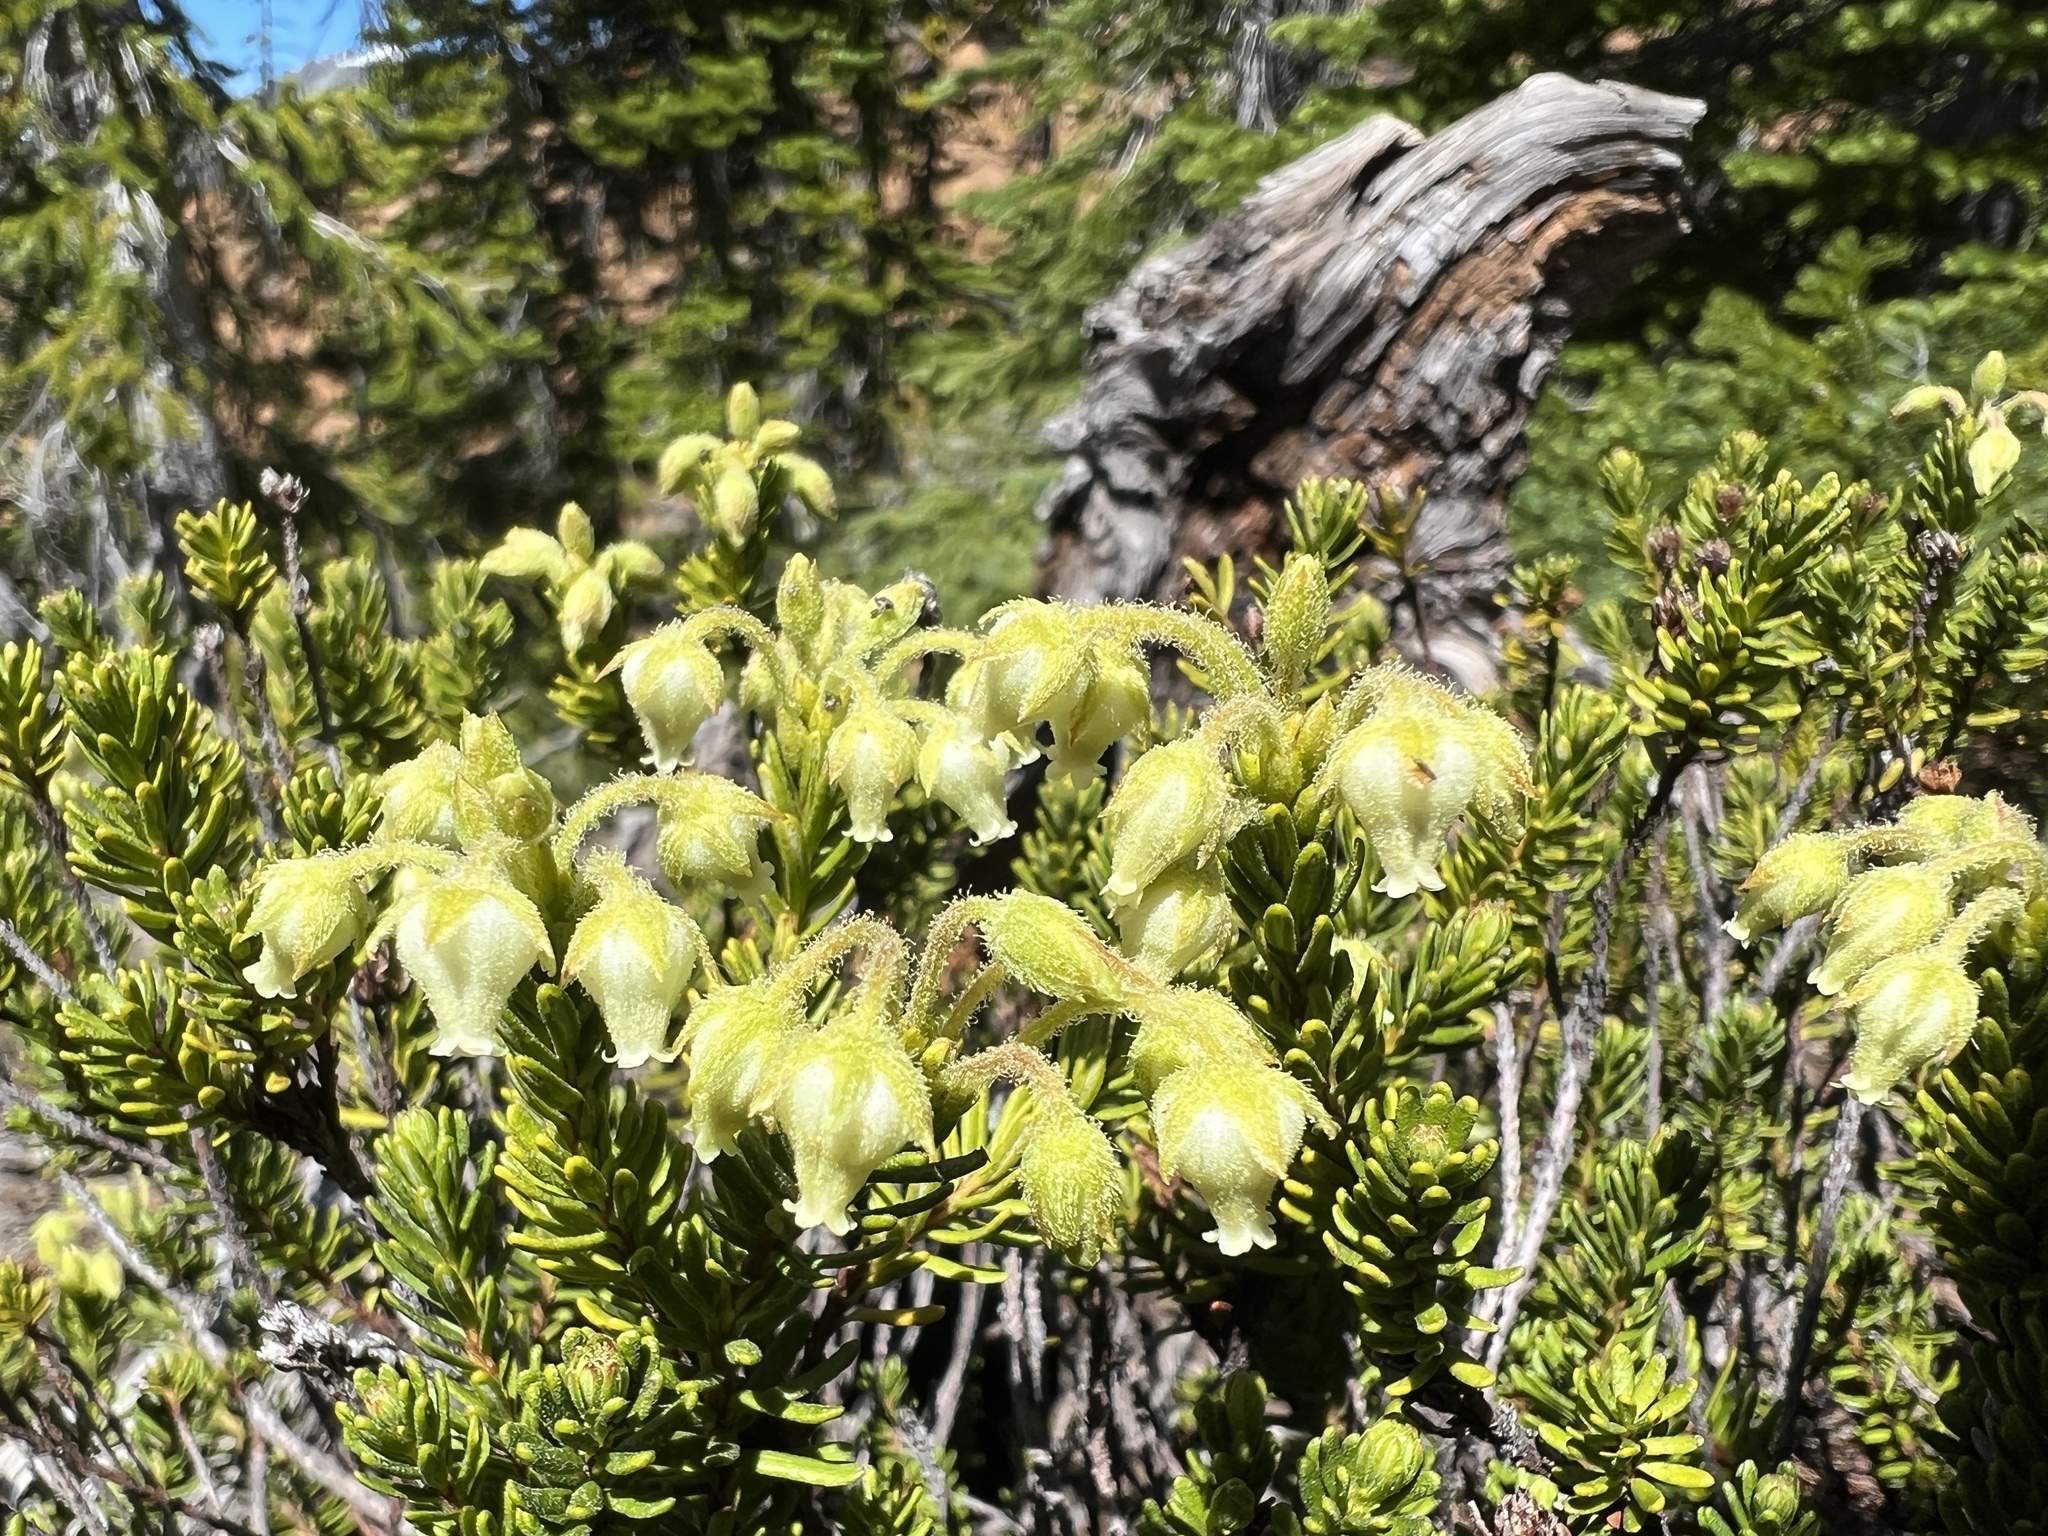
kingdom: Plantae
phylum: Tracheophyta
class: Magnoliopsida
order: Ericales
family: Ericaceae
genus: Phyllodoce
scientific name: Phyllodoce glanduliflora
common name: Cream mountain heather
